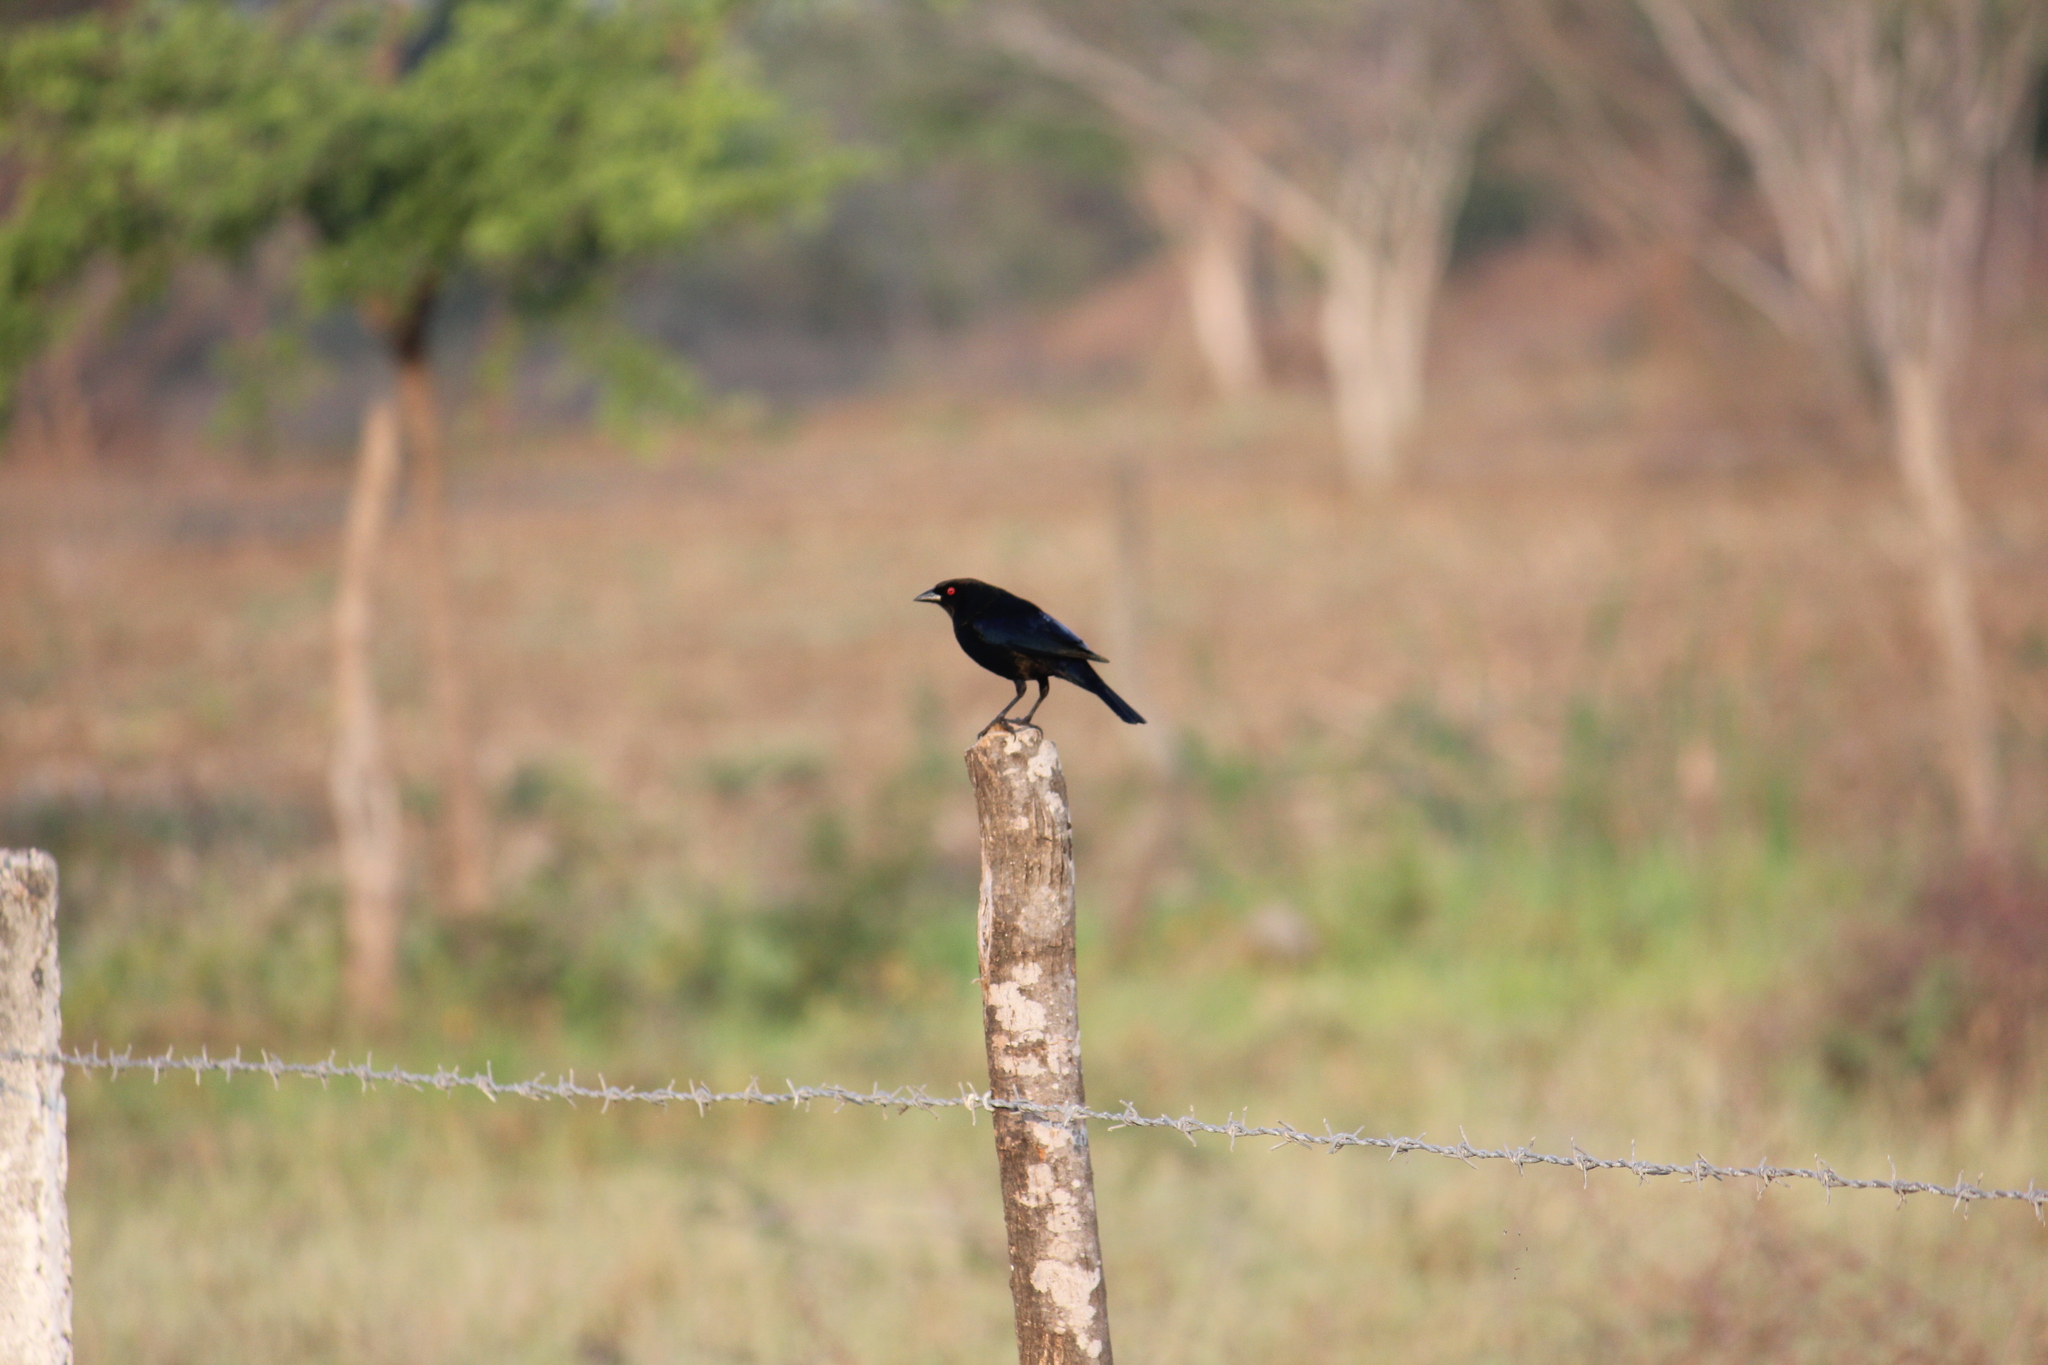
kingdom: Animalia
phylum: Chordata
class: Aves
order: Passeriformes
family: Icteridae
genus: Molothrus
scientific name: Molothrus aeneus
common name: Bronzed cowbird
